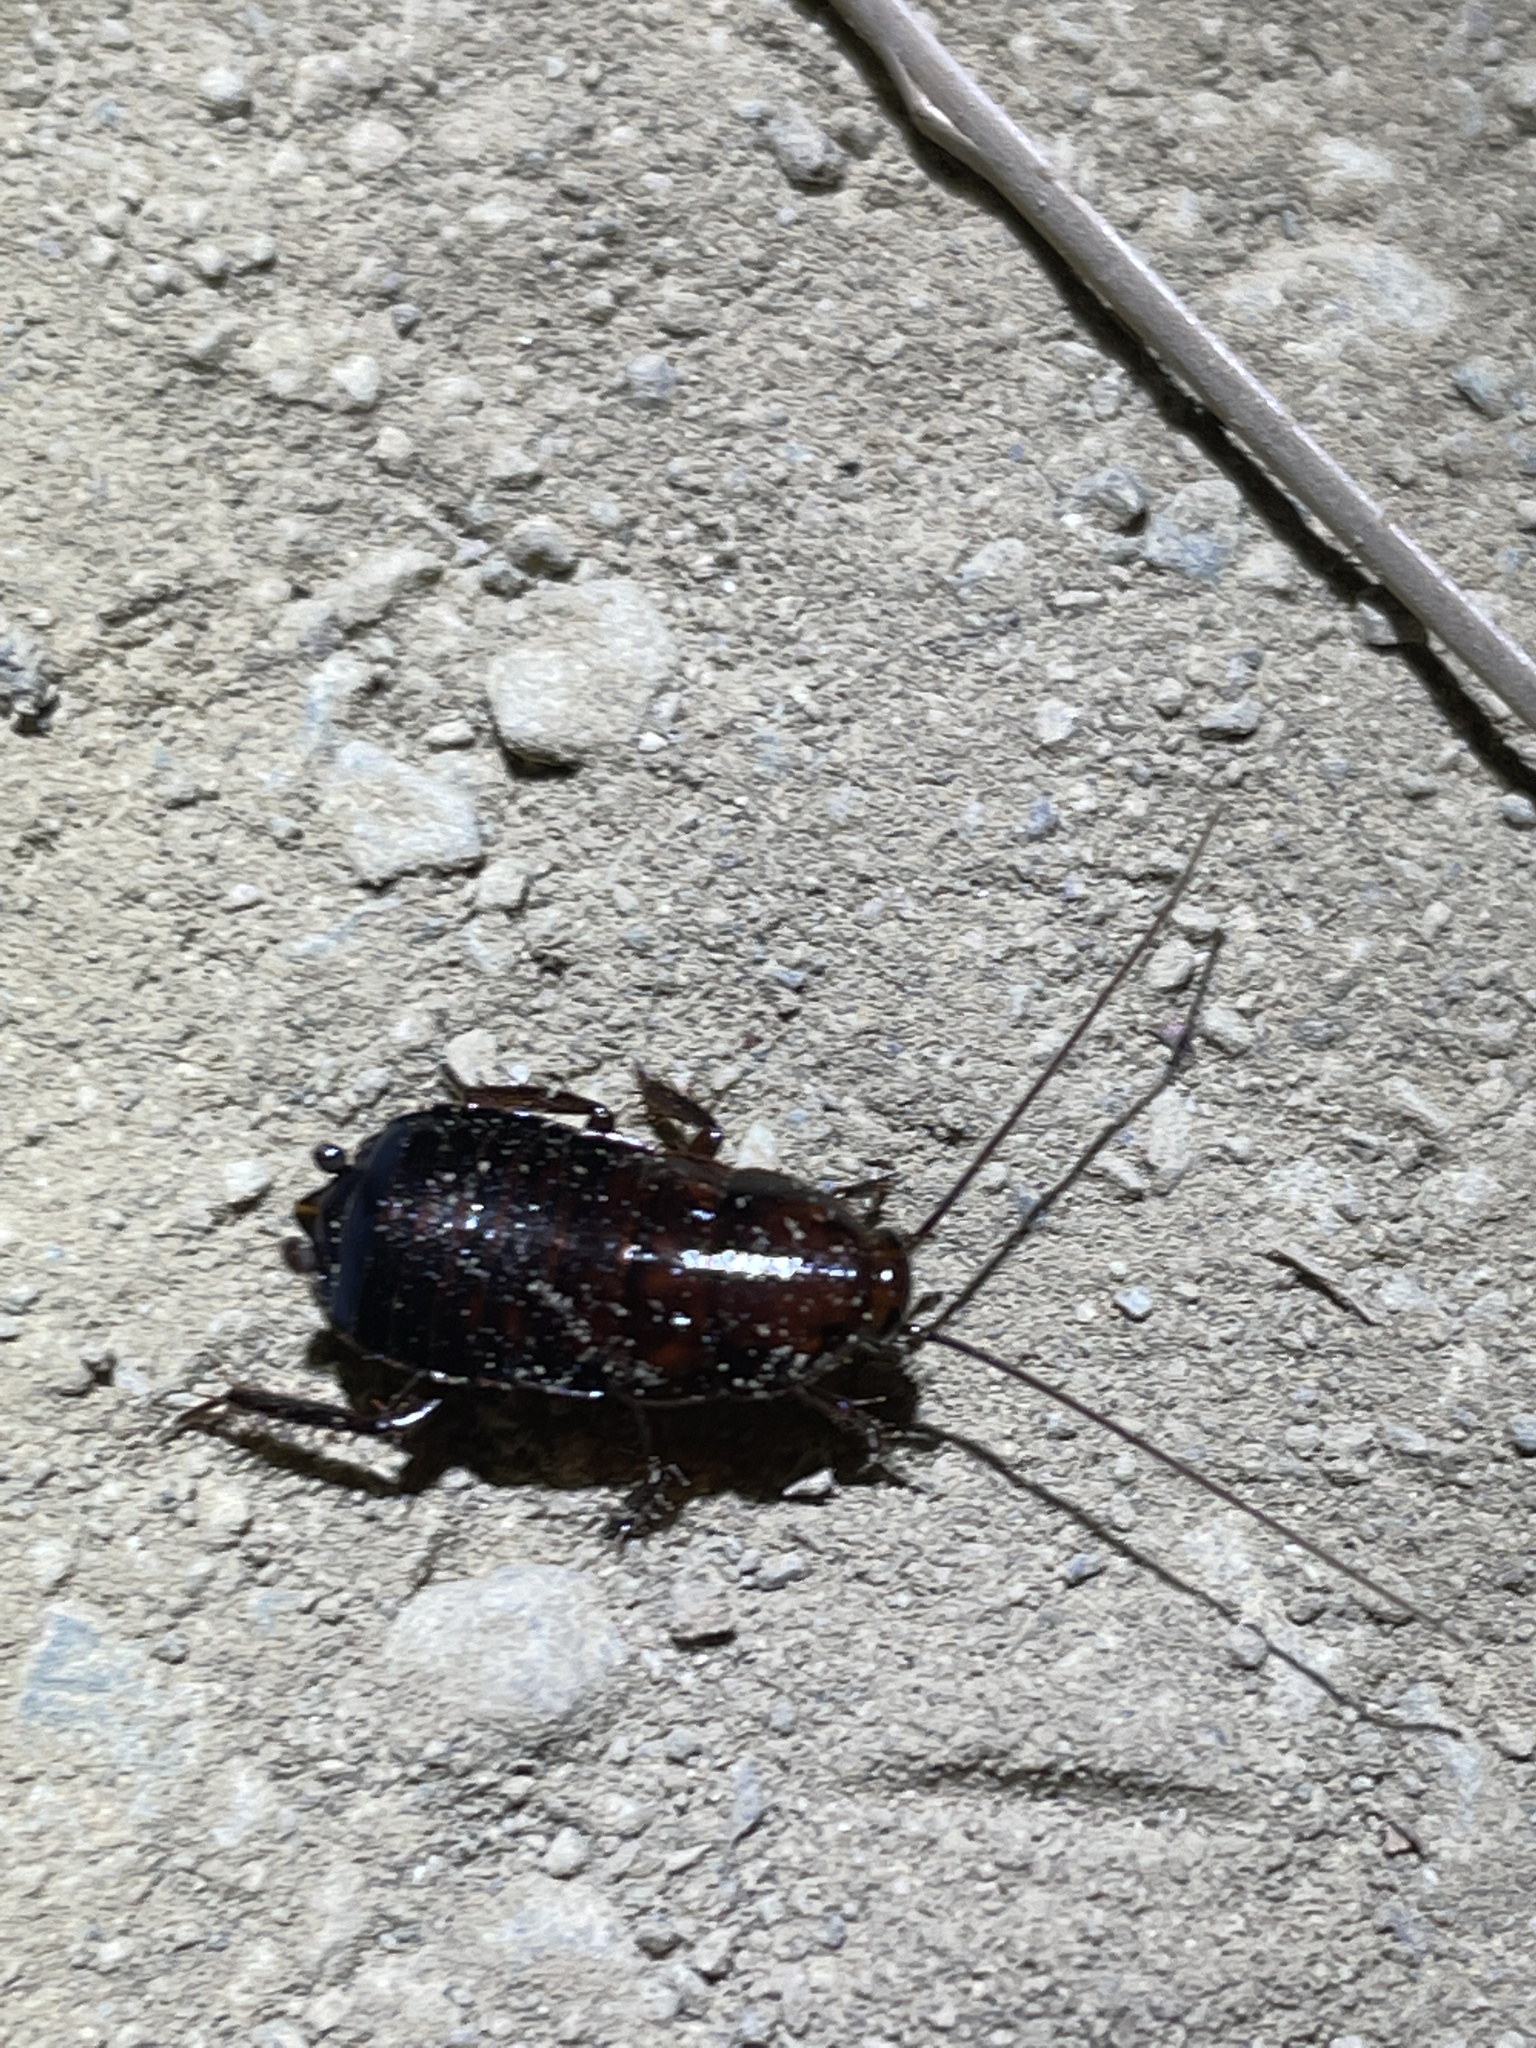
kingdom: Animalia
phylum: Arthropoda
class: Insecta
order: Blattodea
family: Ectobiidae
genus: Parcoblatta
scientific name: Parcoblatta americana
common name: Western wood cockroach
